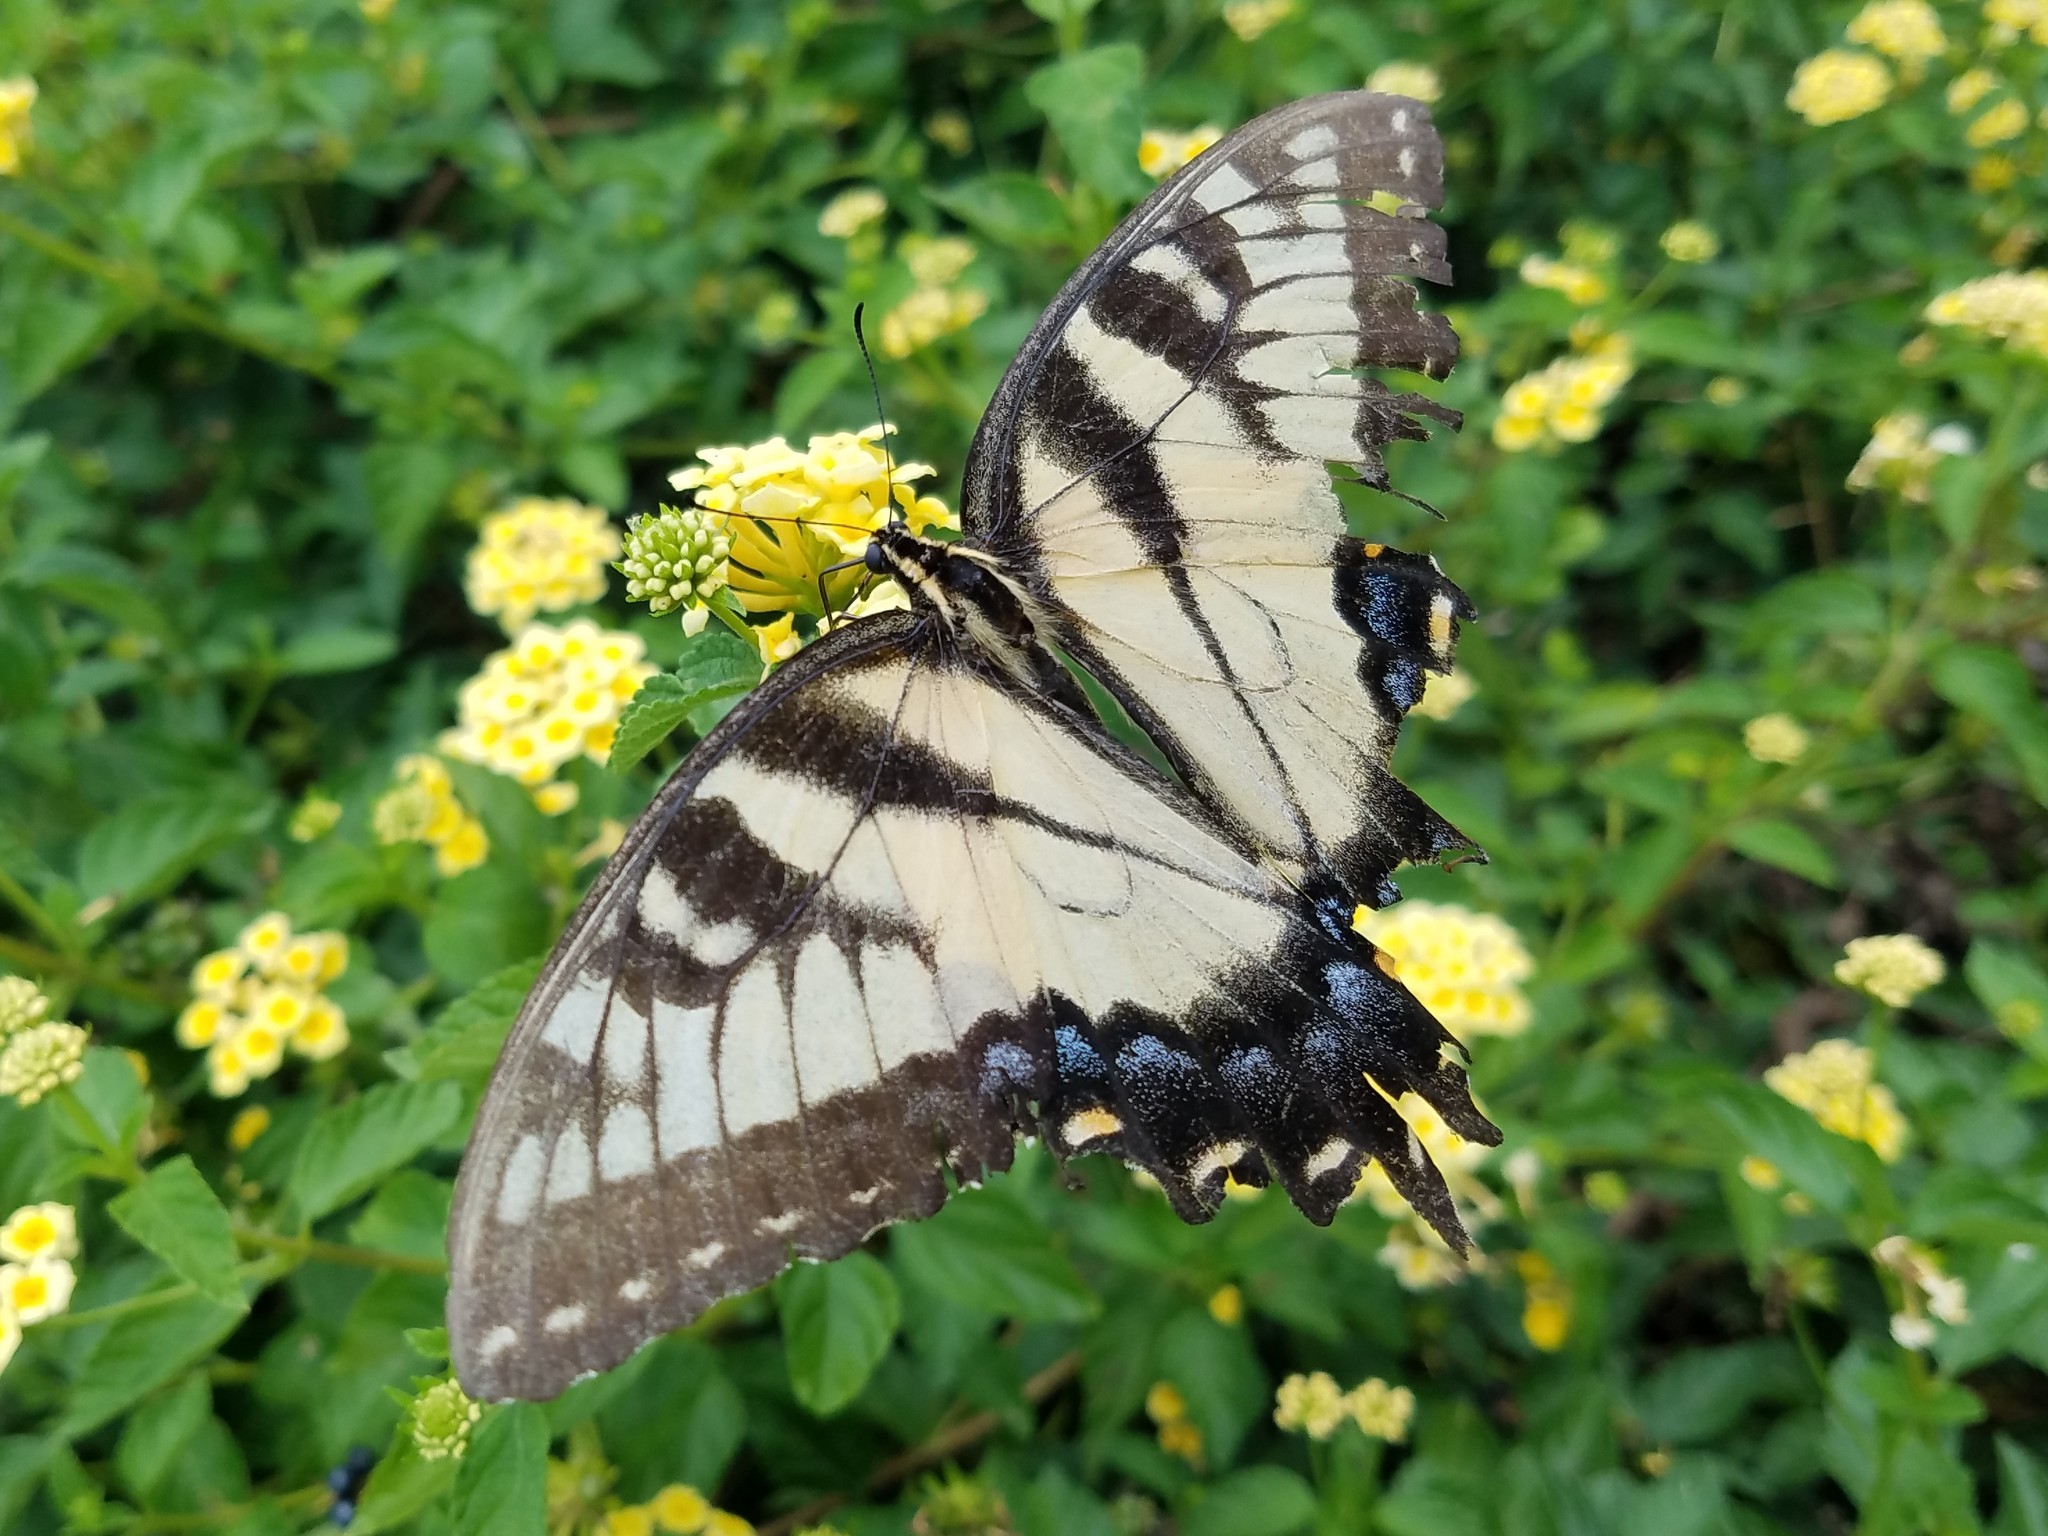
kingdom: Animalia
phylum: Arthropoda
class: Insecta
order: Lepidoptera
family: Papilionidae
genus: Papilio
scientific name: Papilio glaucus
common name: Tiger swallowtail
